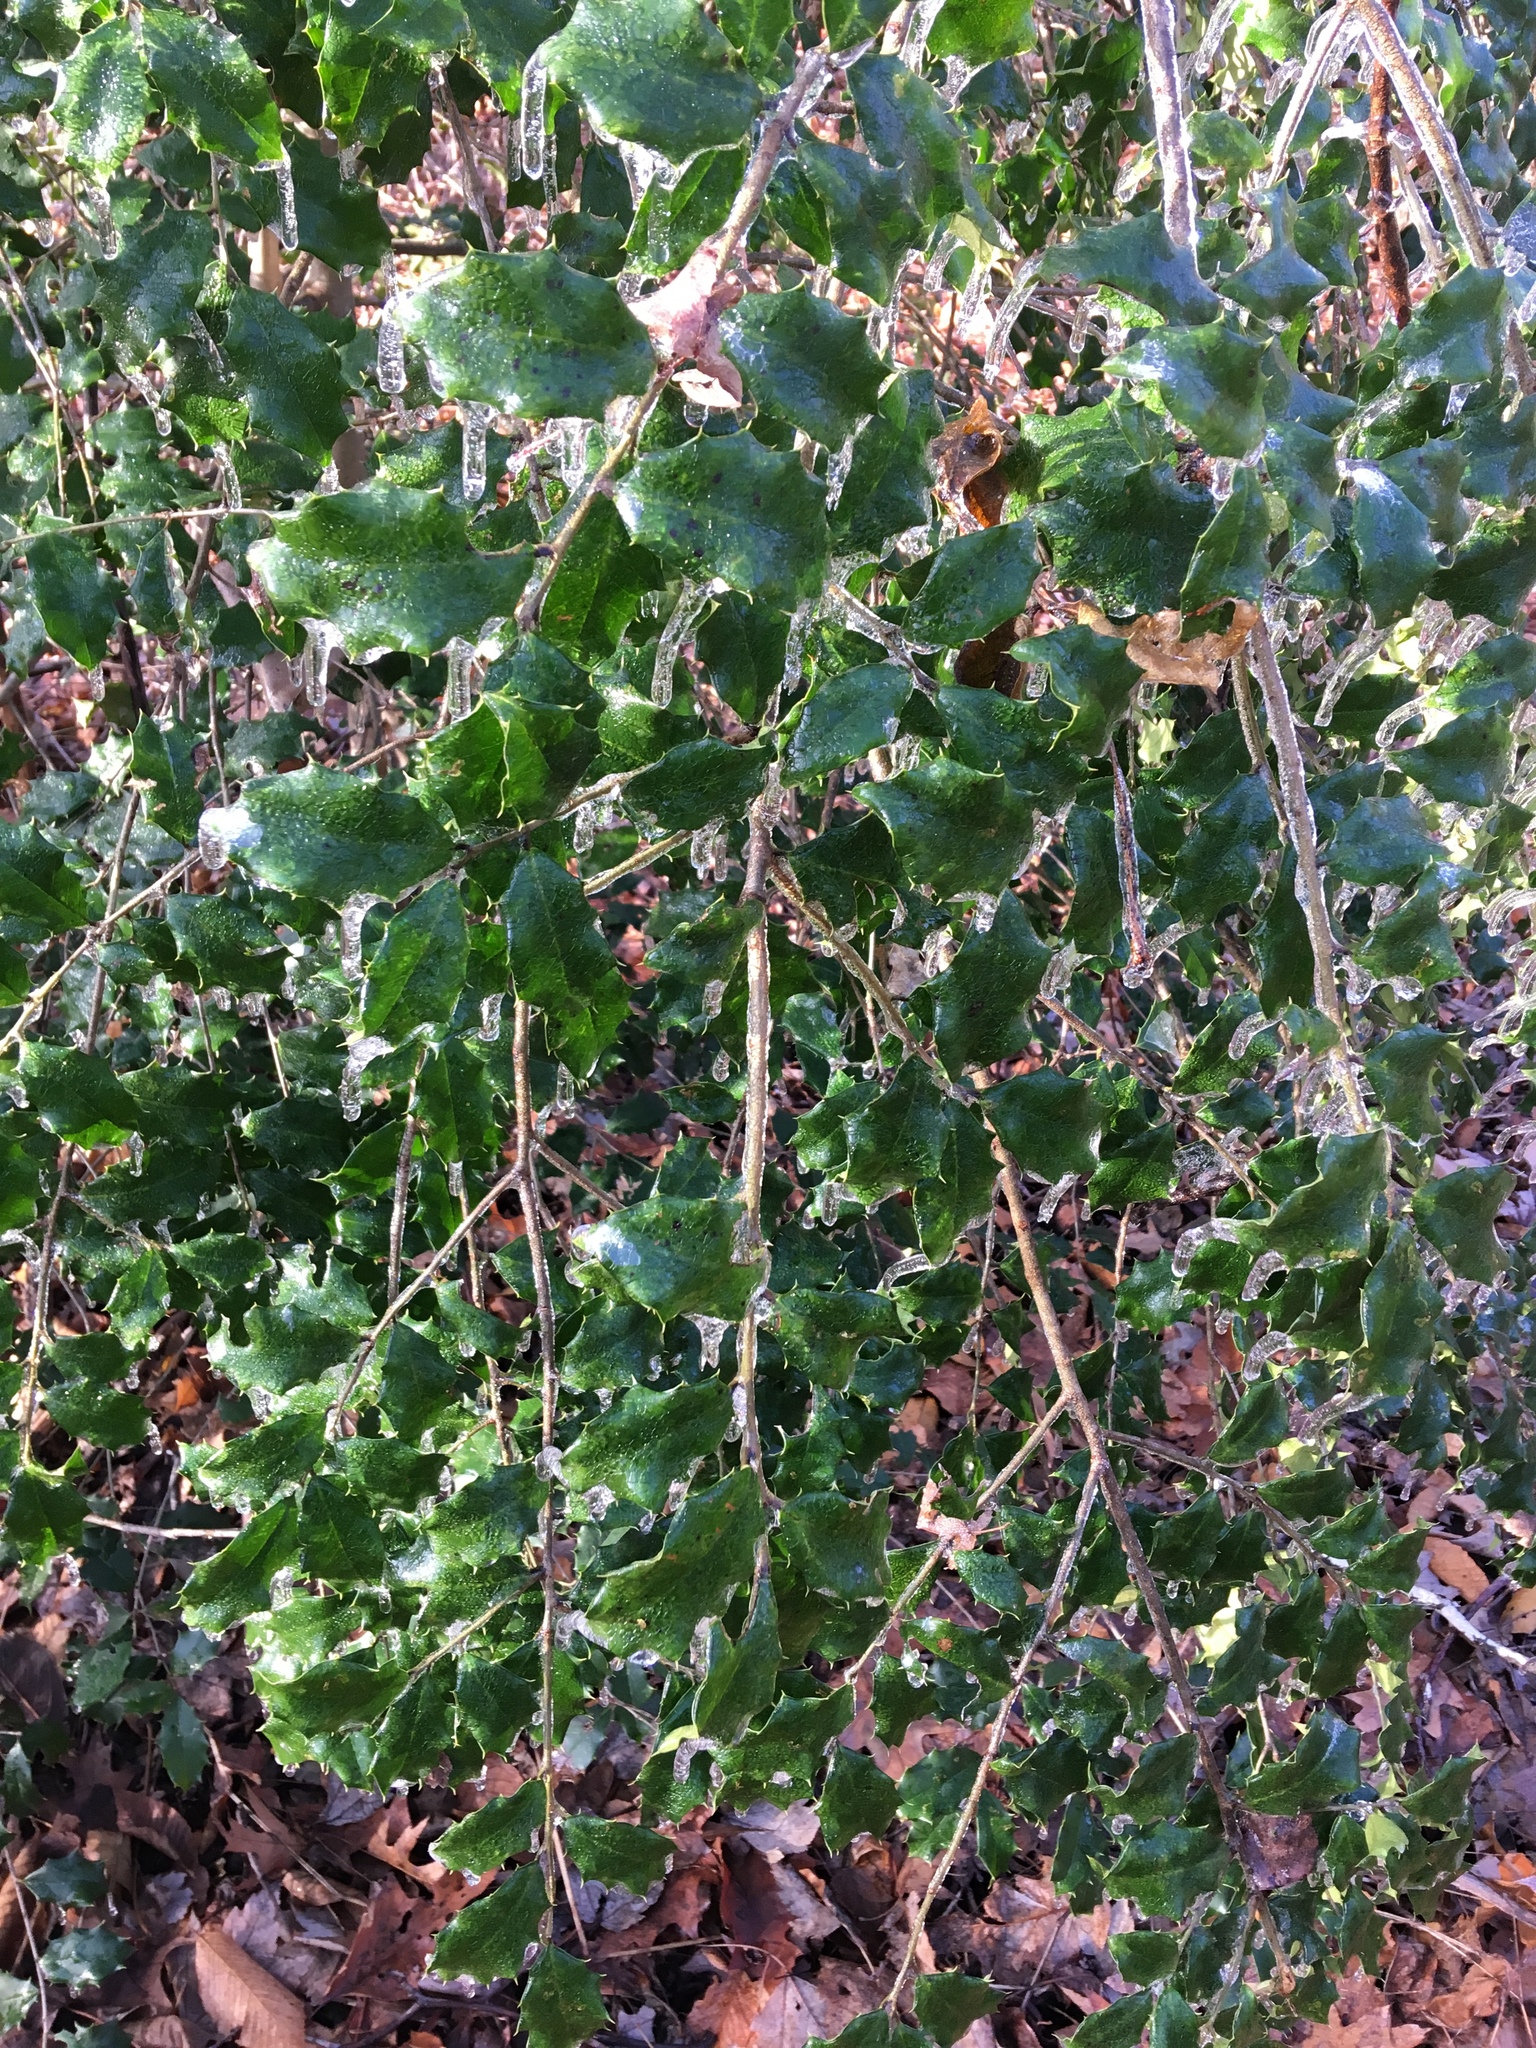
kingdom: Plantae
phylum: Tracheophyta
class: Magnoliopsida
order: Aquifoliales
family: Aquifoliaceae
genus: Ilex
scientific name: Ilex opaca
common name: American holly
